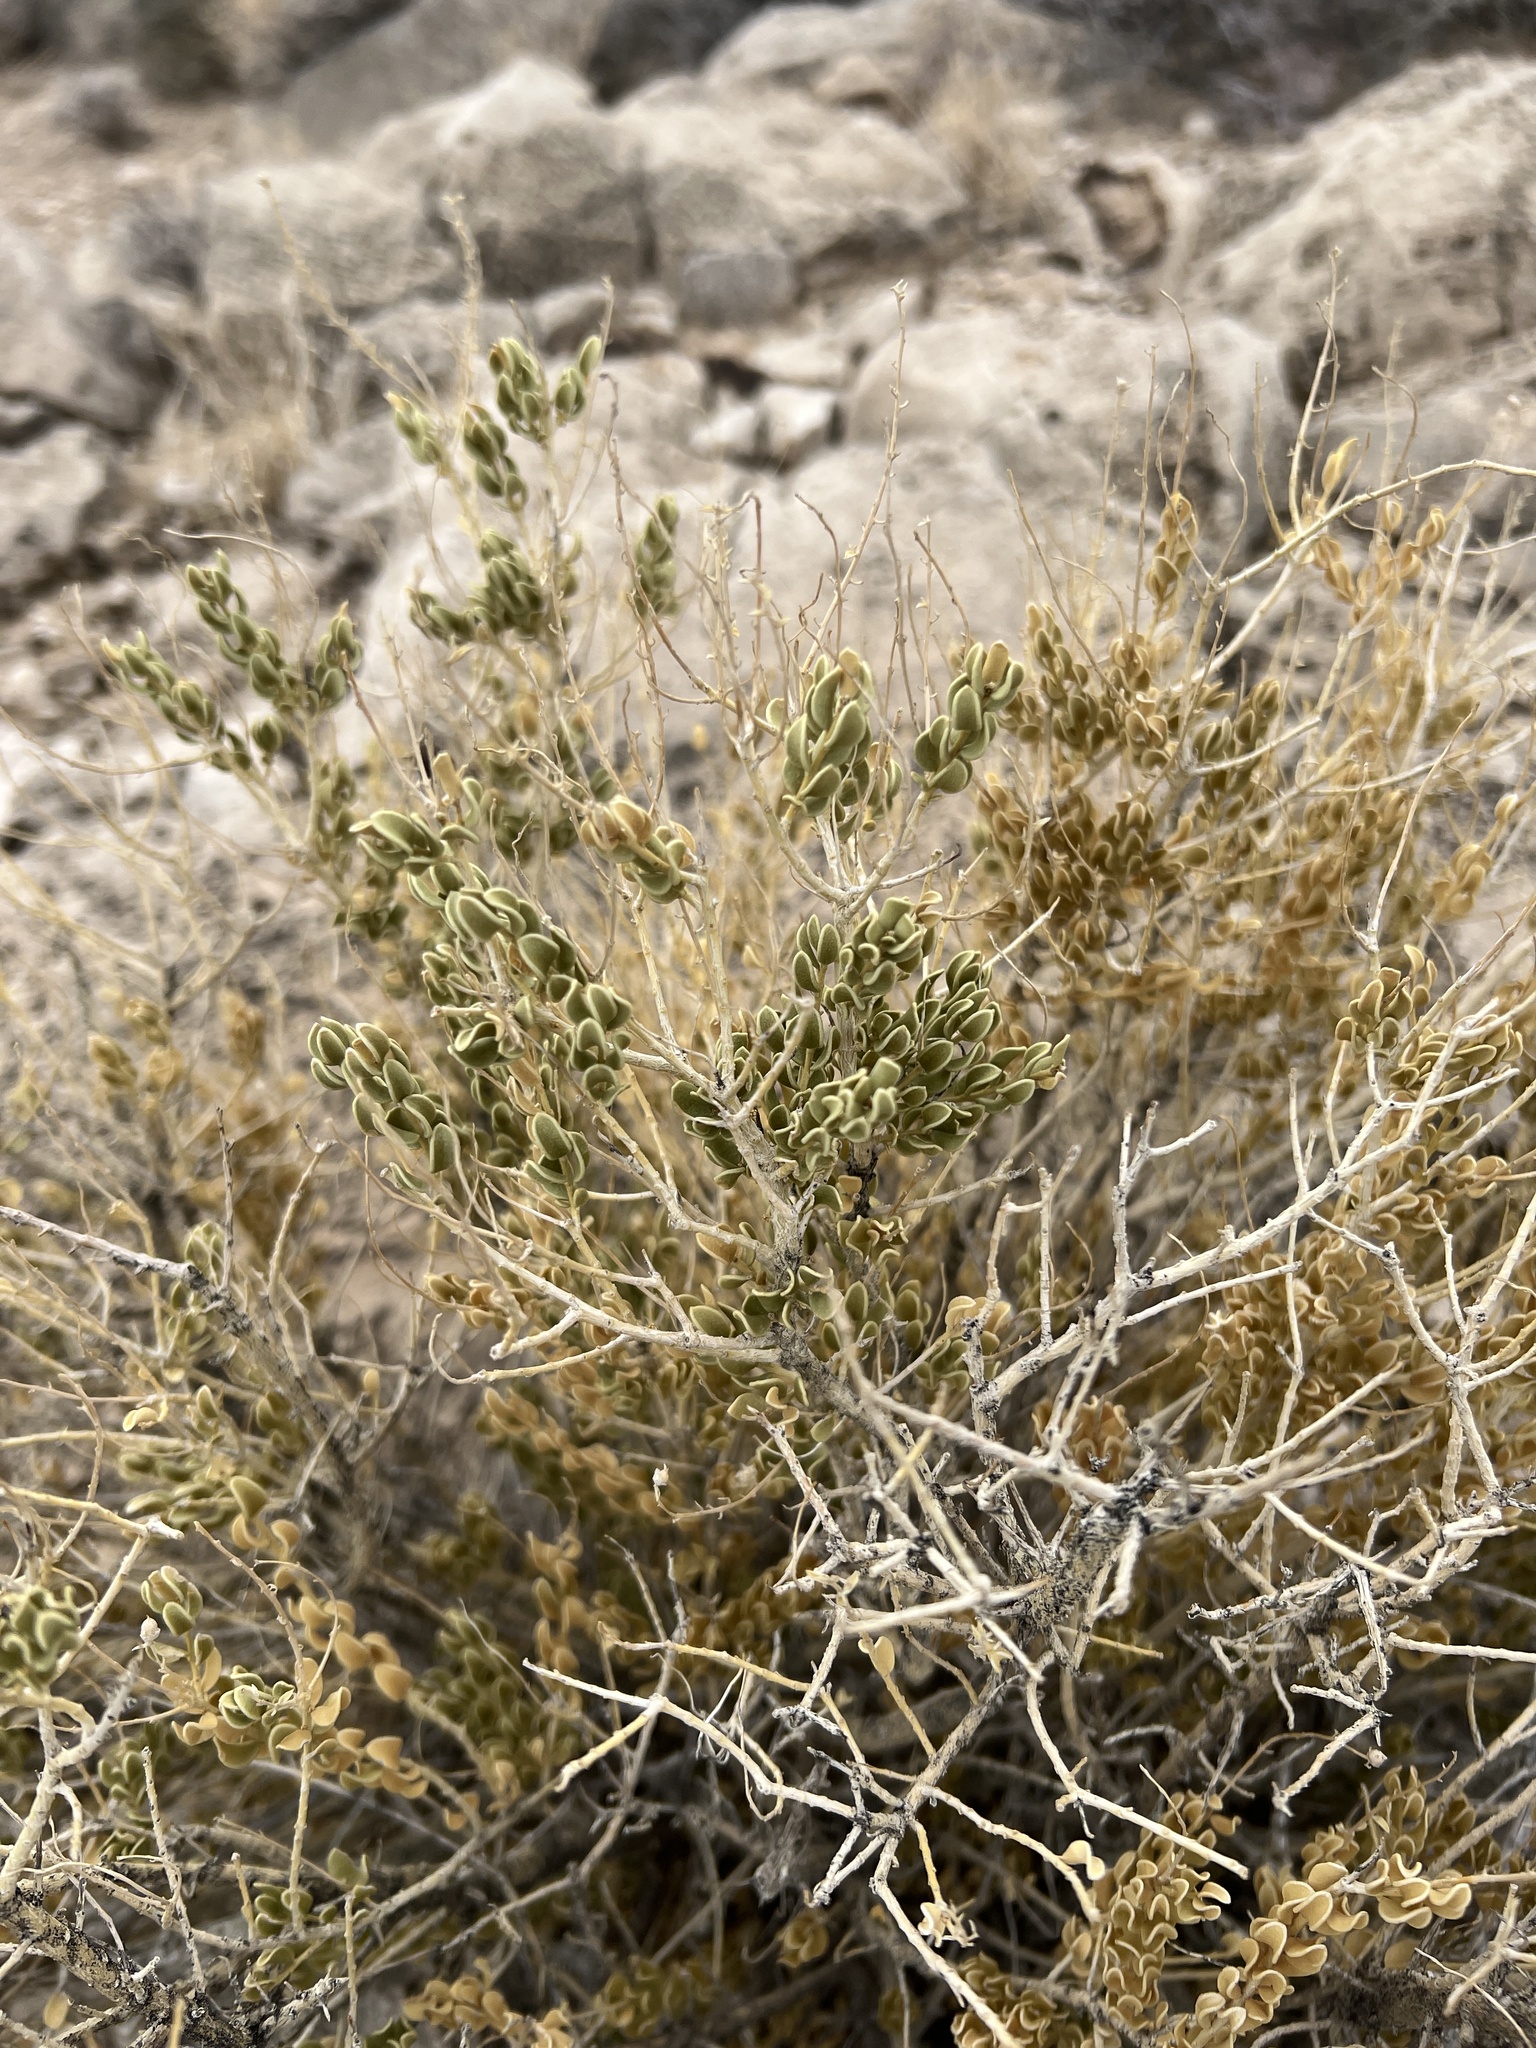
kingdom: Plantae
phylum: Tracheophyta
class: Magnoliopsida
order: Celastrales
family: Celastraceae
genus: Mortonia
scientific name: Mortonia utahensis
